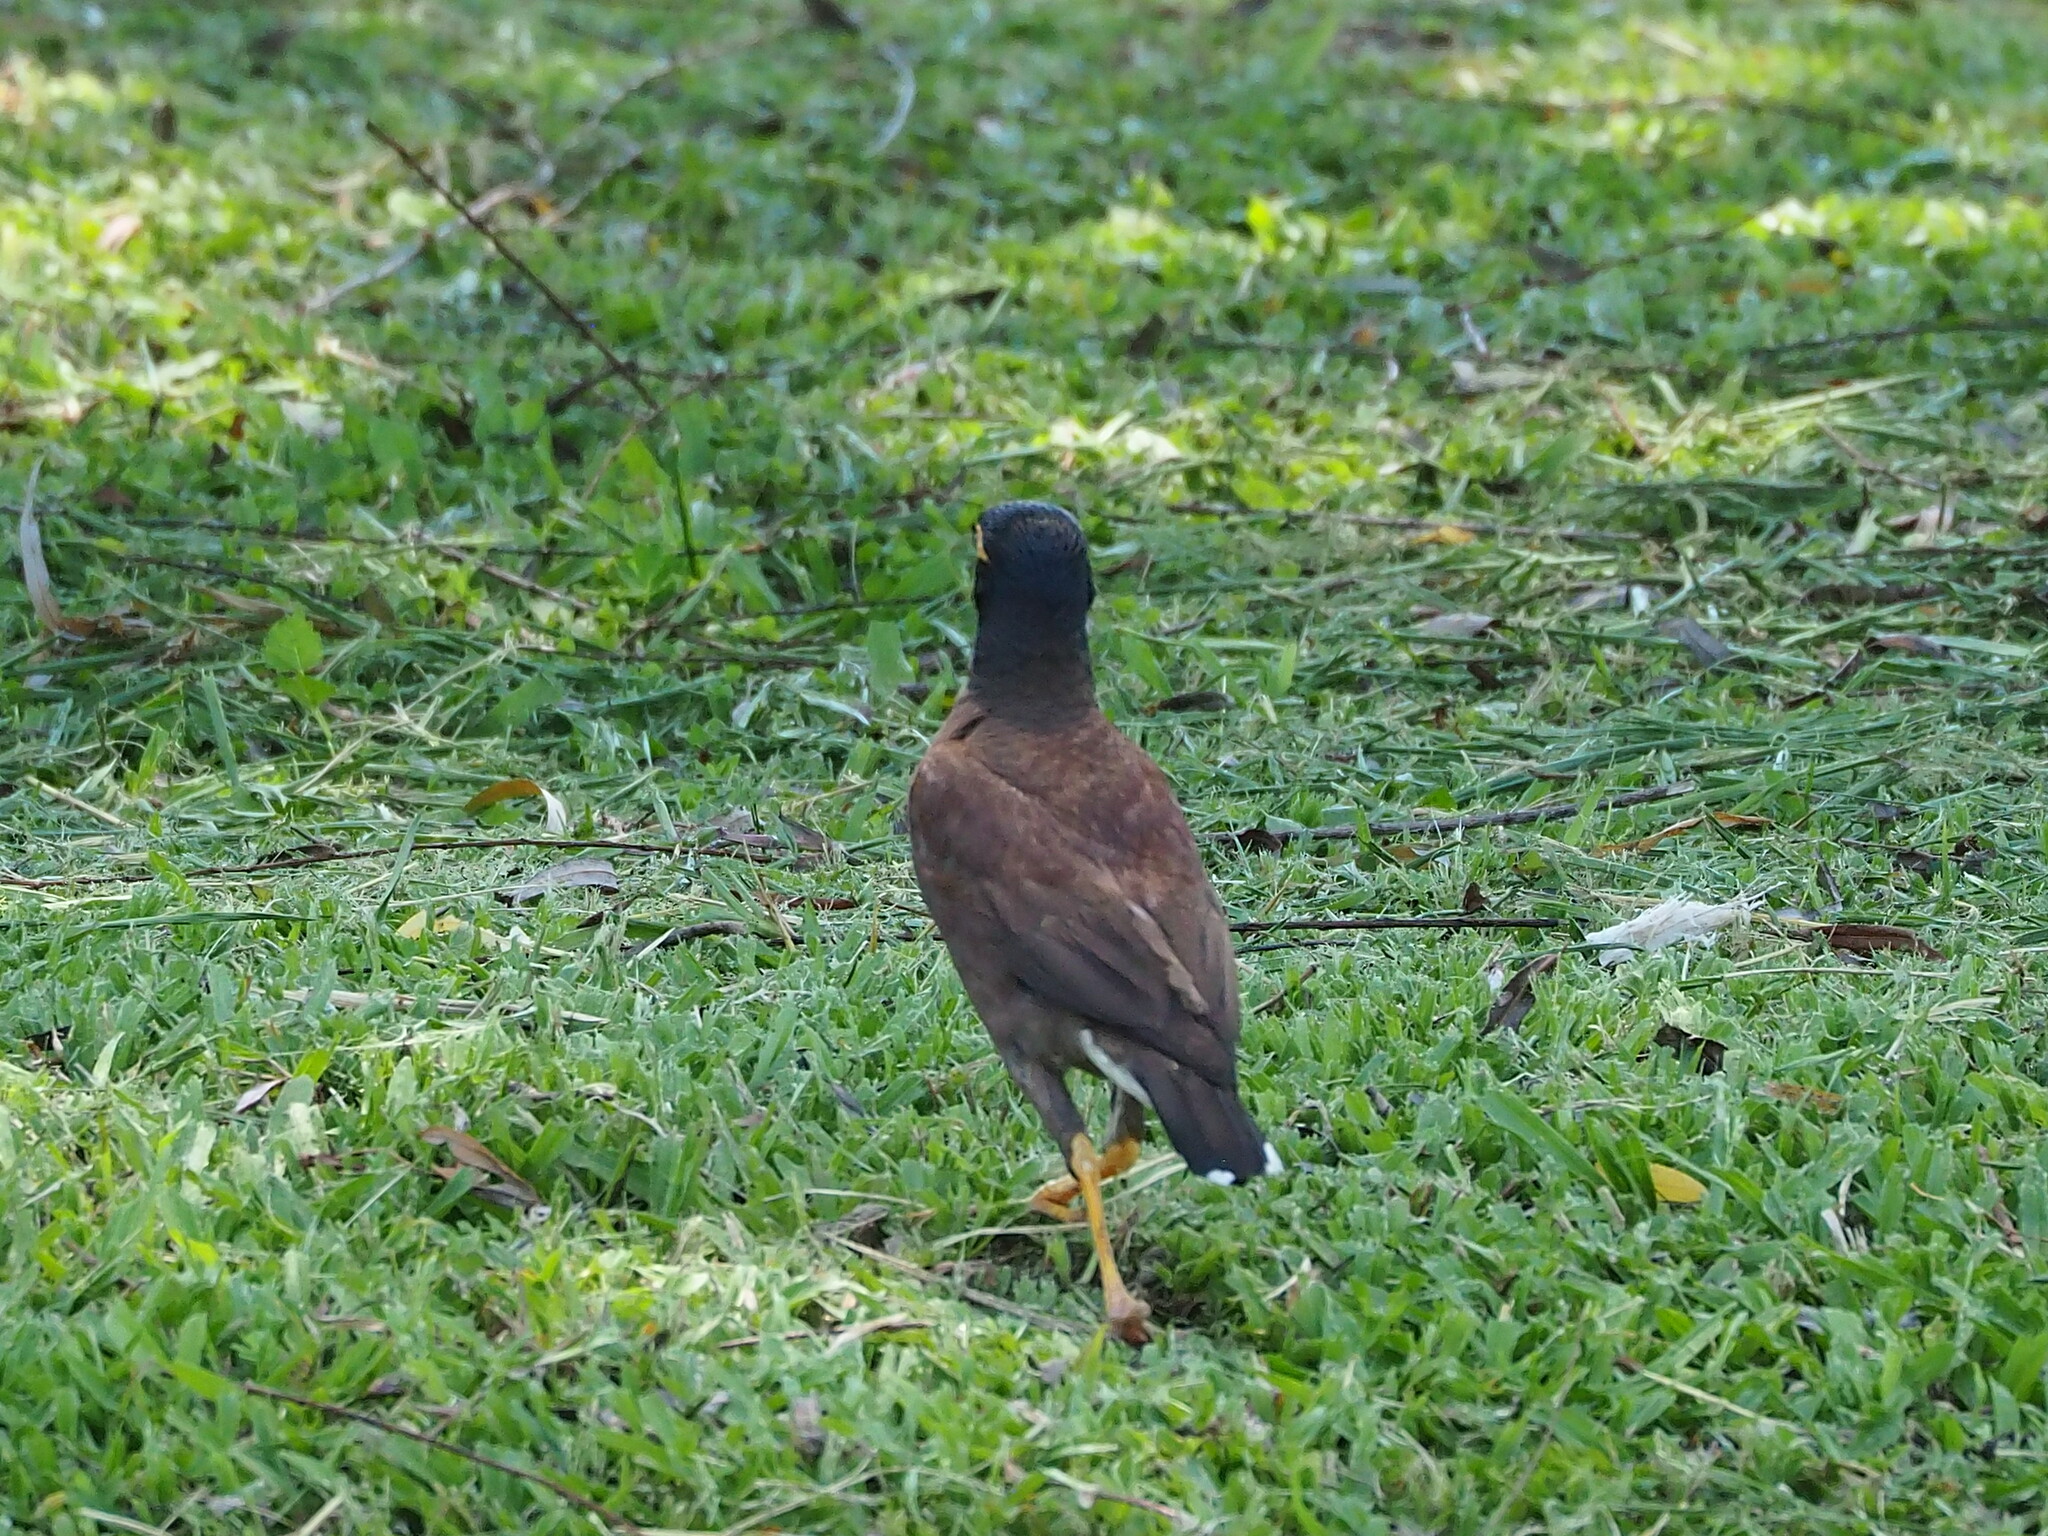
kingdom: Animalia
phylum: Chordata
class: Aves
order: Passeriformes
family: Sturnidae
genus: Acridotheres
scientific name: Acridotheres tristis
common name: Common myna
